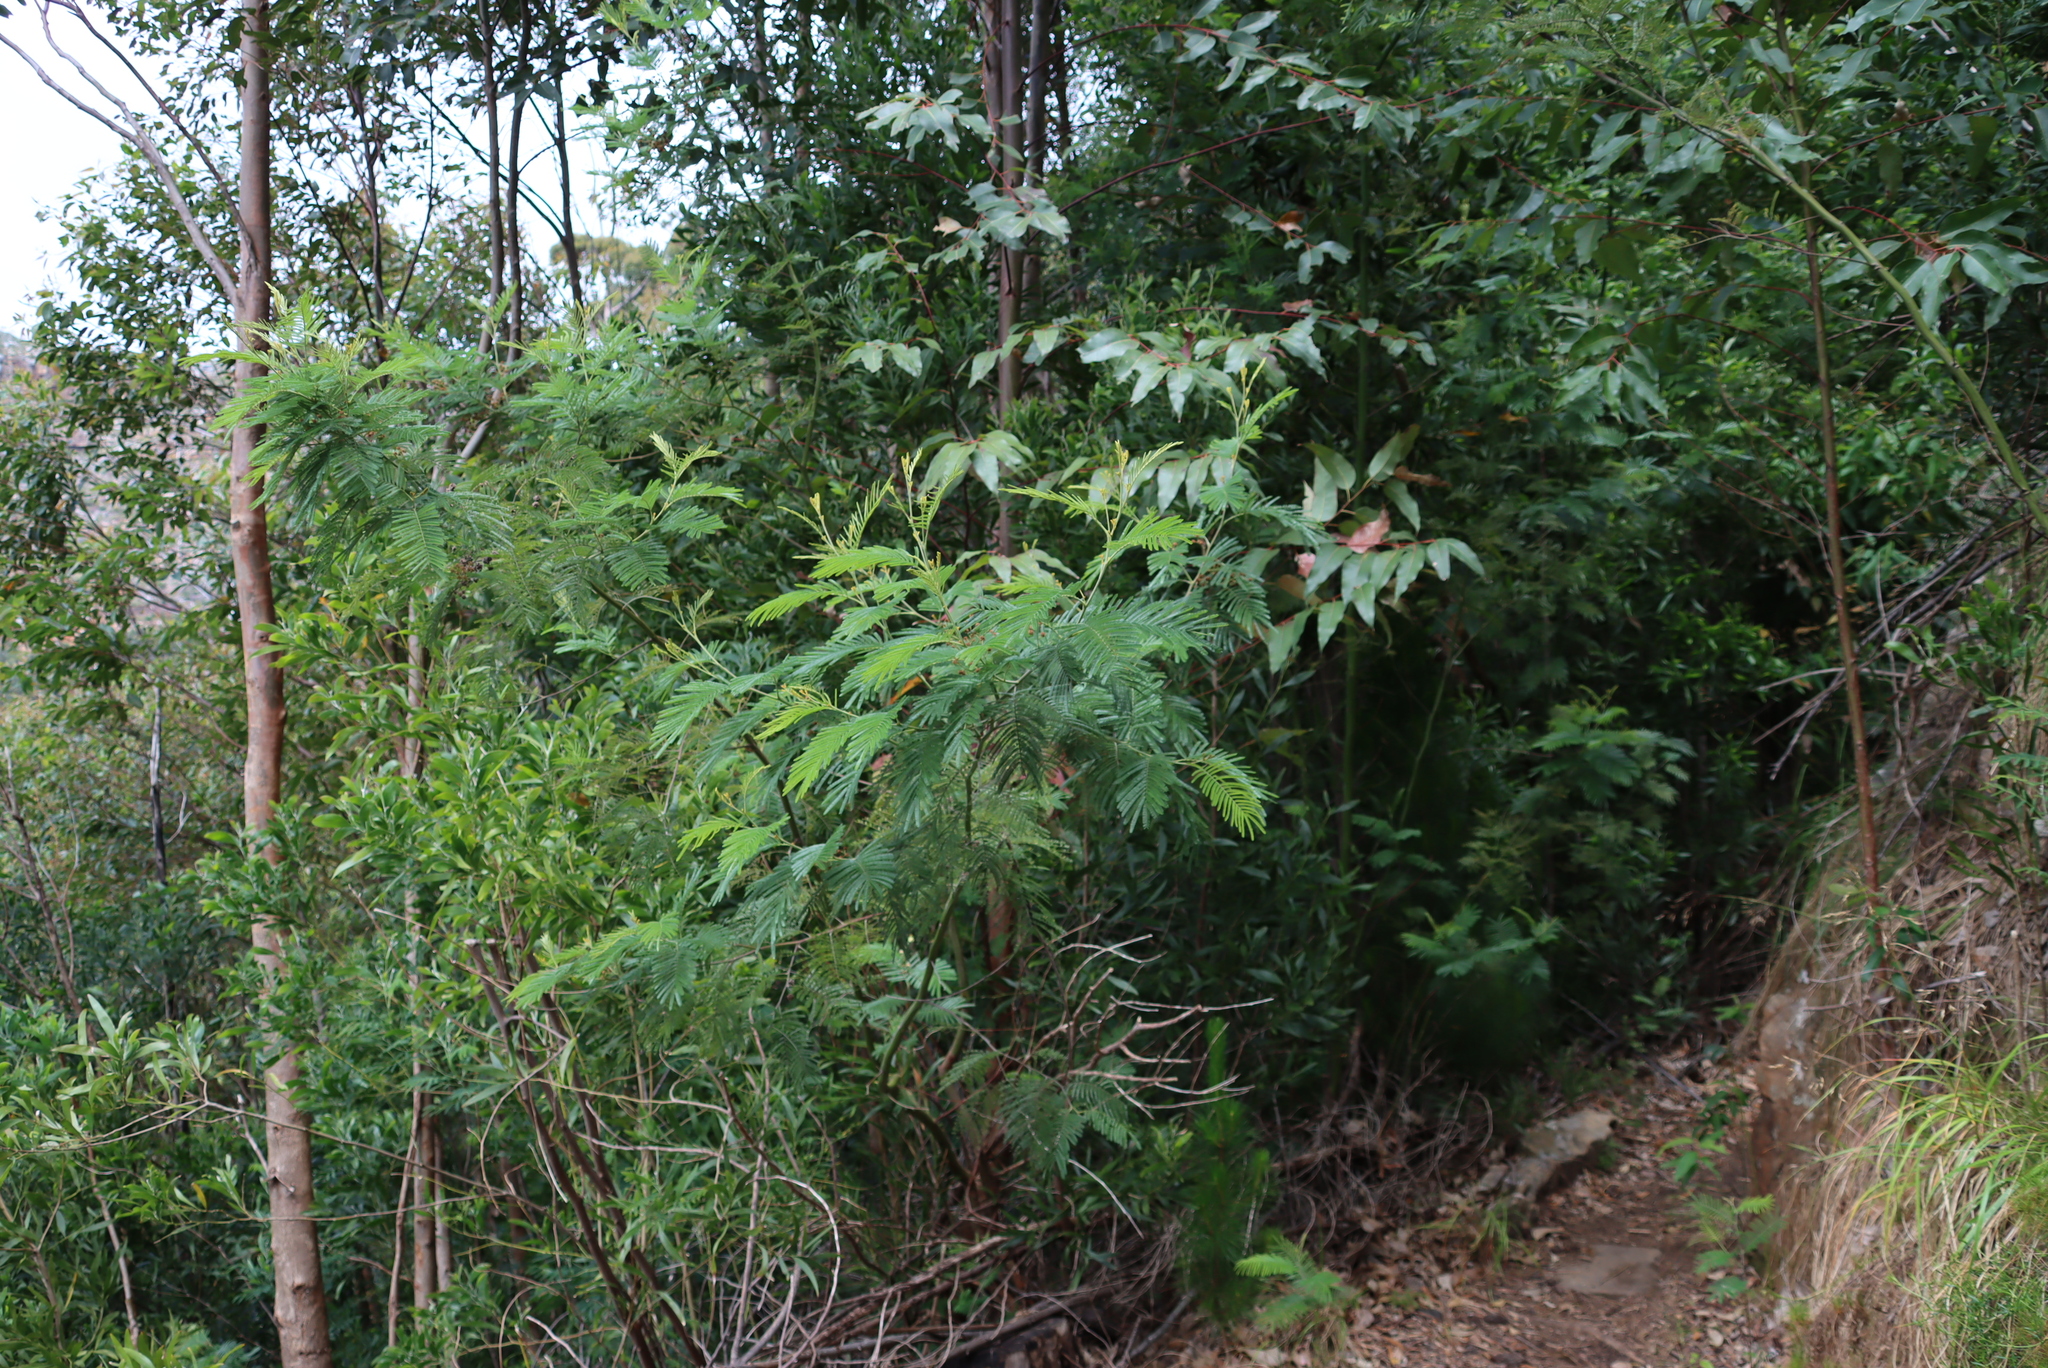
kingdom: Plantae
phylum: Tracheophyta
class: Magnoliopsida
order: Fabales
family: Fabaceae
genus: Acacia
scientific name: Acacia mearnsii
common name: Black wattle
